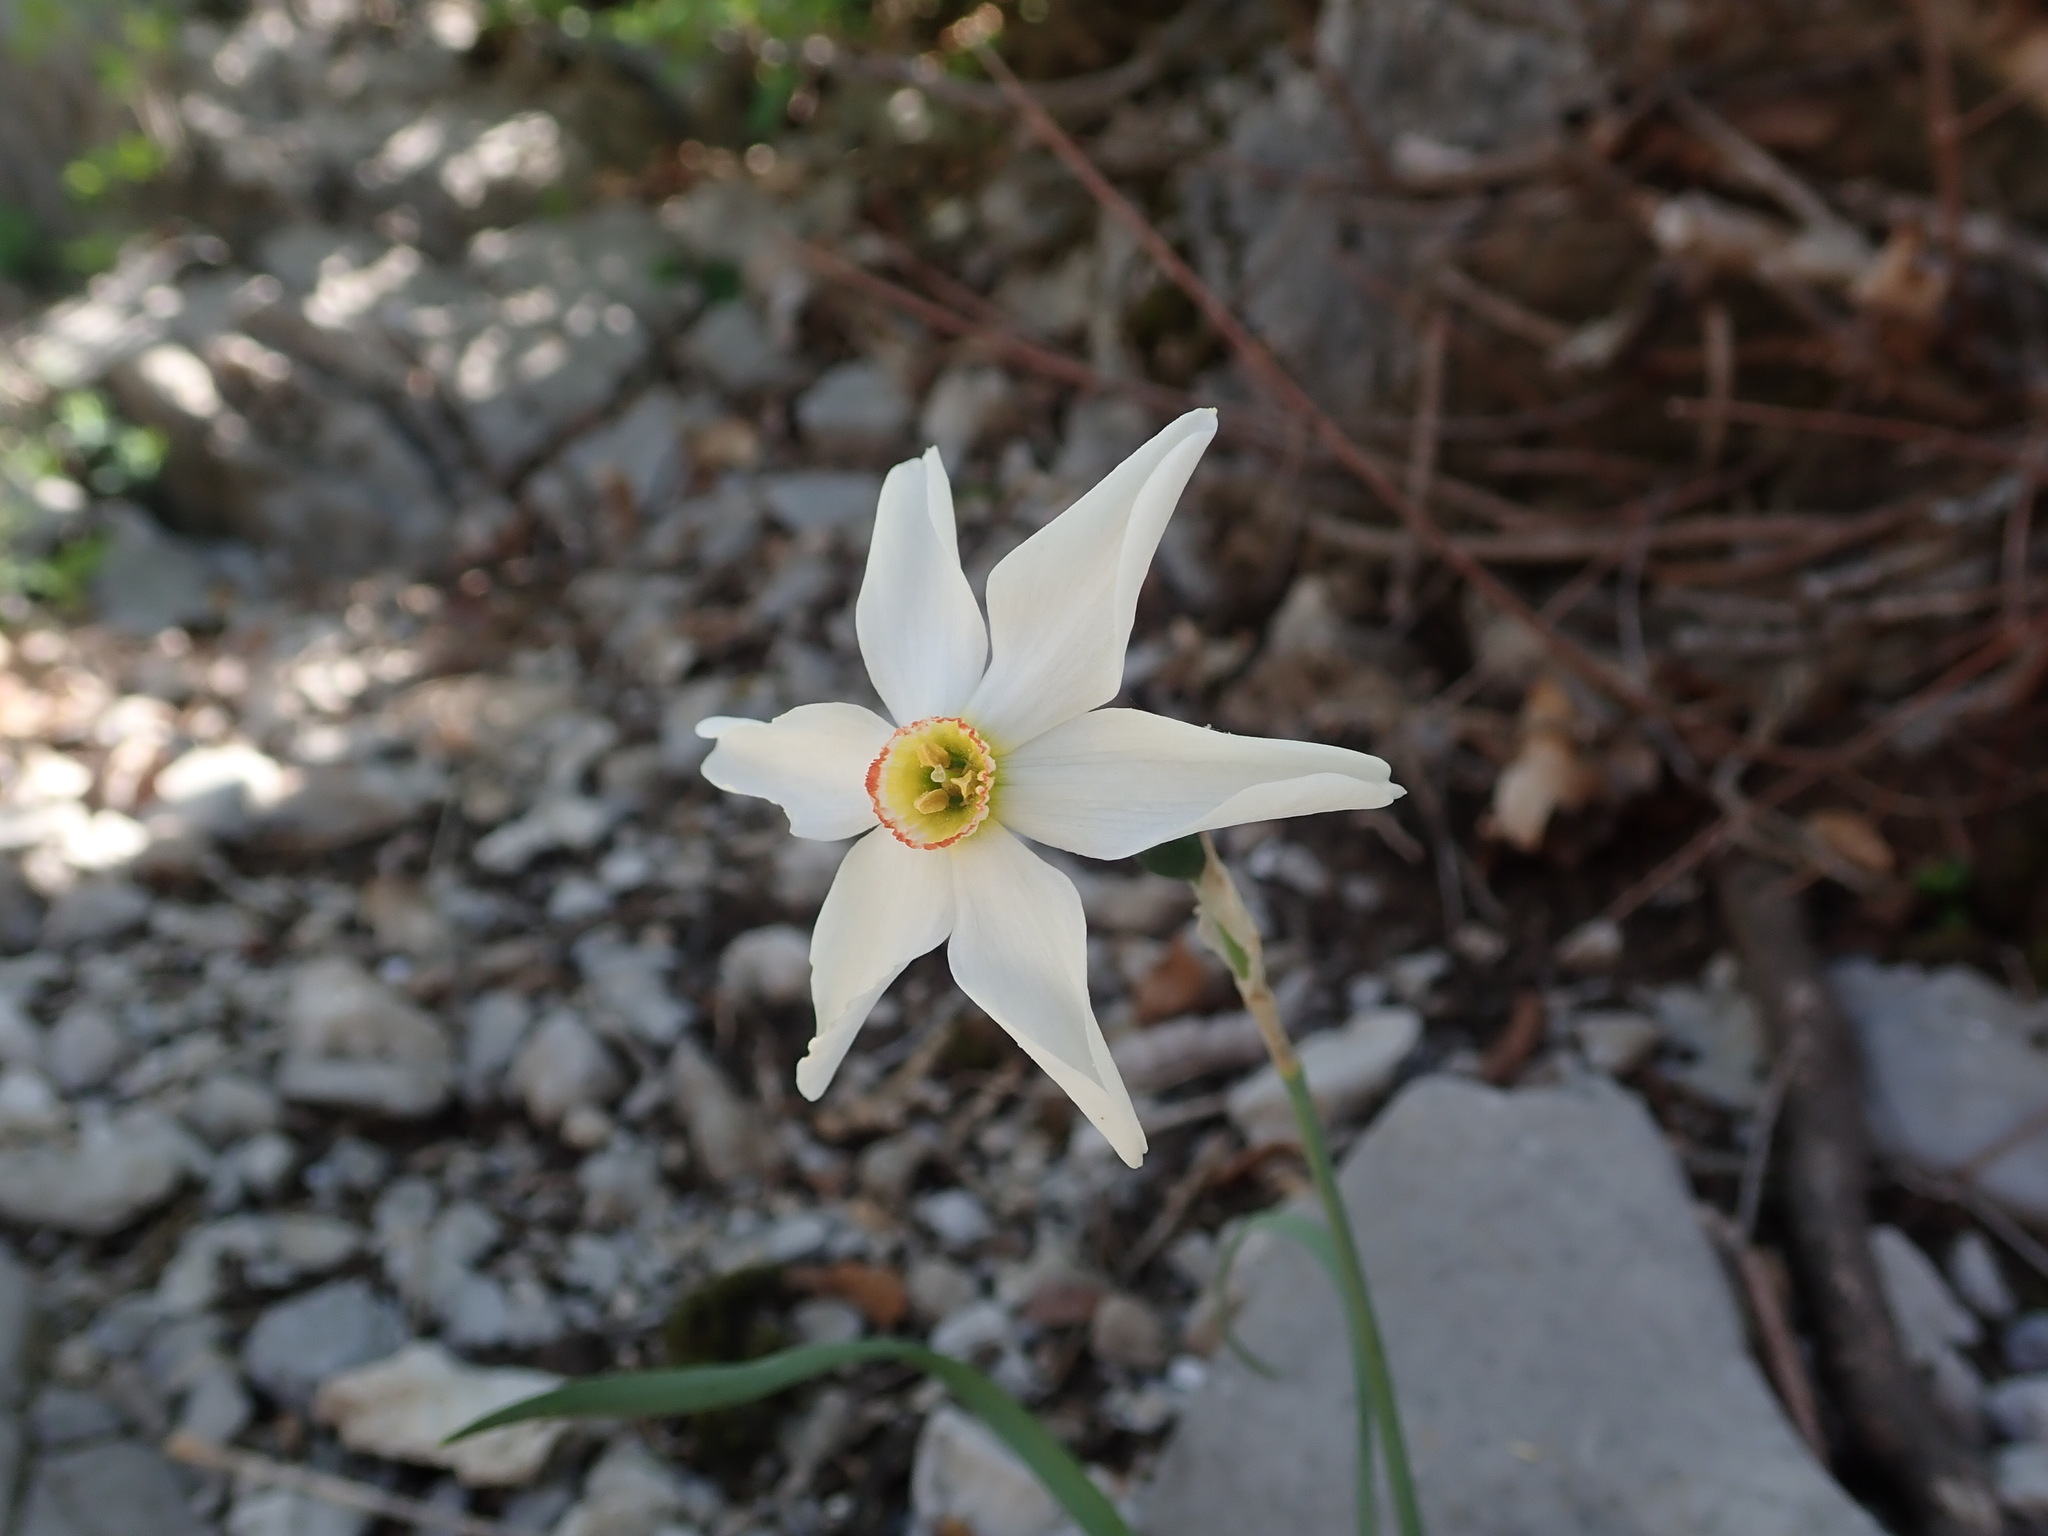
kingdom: Plantae
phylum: Tracheophyta
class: Liliopsida
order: Asparagales
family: Amaryllidaceae
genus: Narcissus
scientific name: Narcissus poeticus
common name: Pheasant's-eye daffodil
